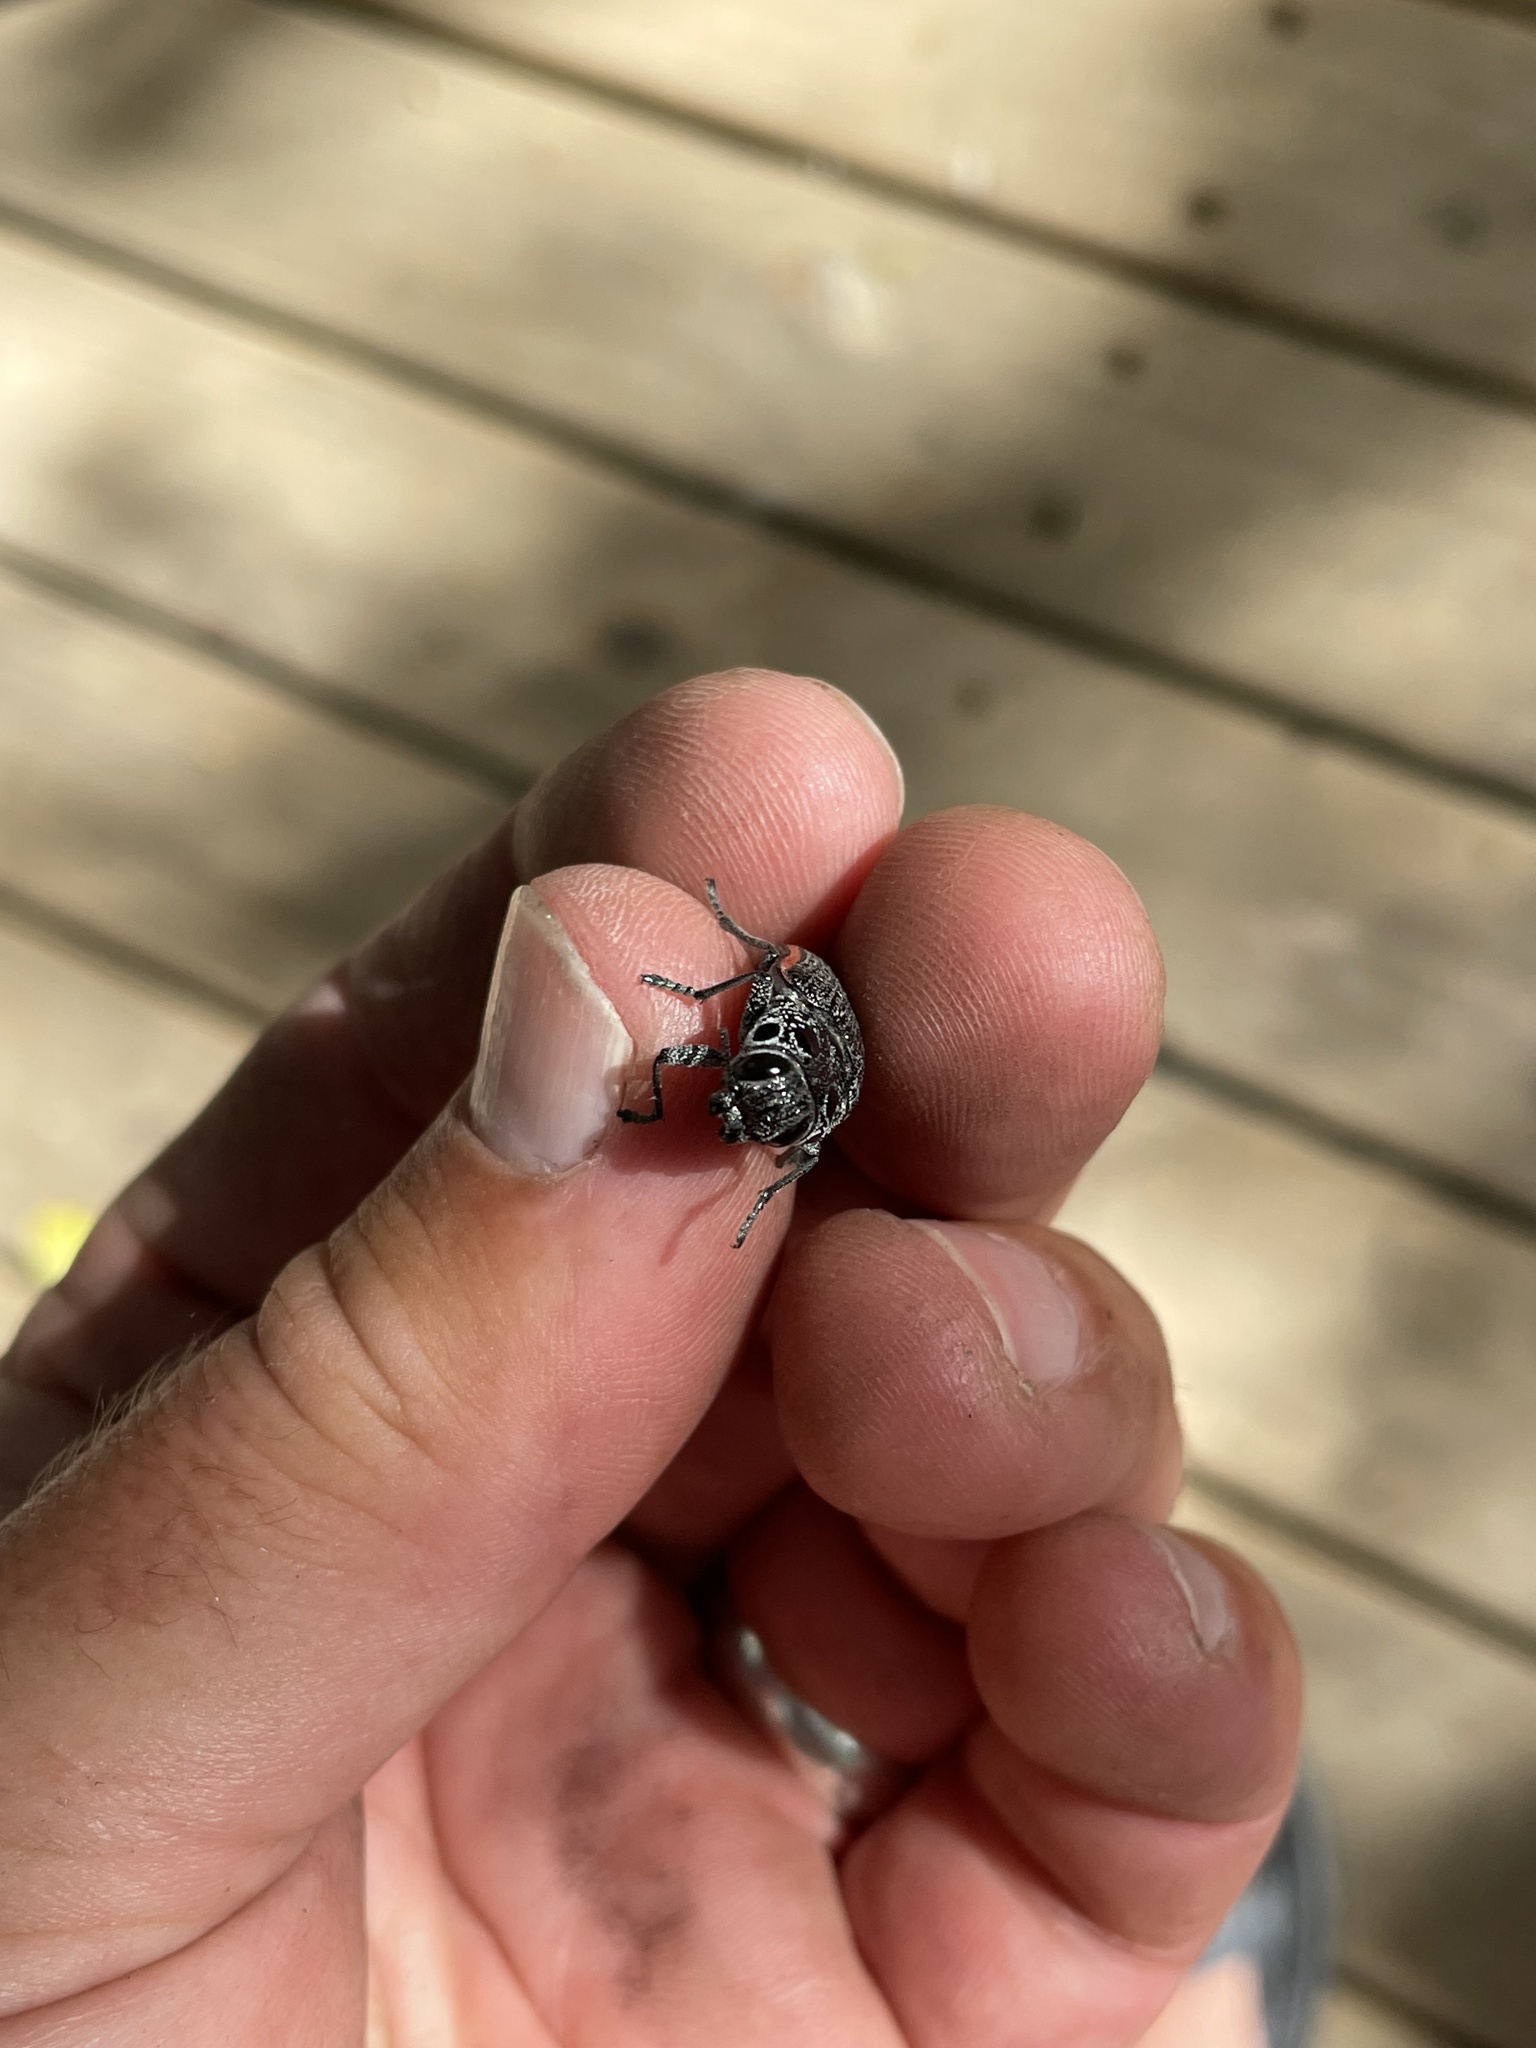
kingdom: Animalia
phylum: Arthropoda
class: Insecta
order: Coleoptera
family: Buprestidae
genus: Lampetis
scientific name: Lampetis amaurotica
